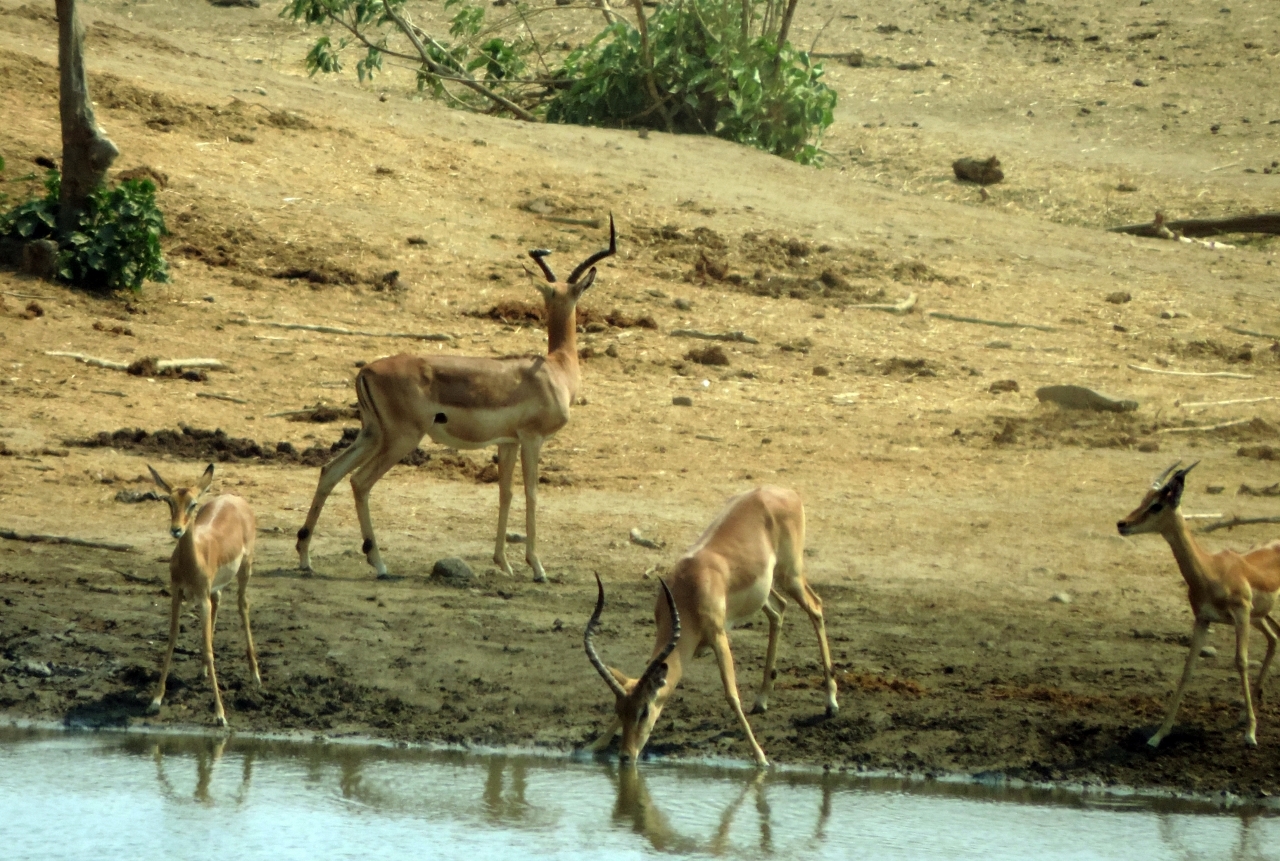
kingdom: Animalia
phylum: Chordata
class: Mammalia
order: Artiodactyla
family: Bovidae
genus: Aepyceros
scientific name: Aepyceros melampus
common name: Impala
